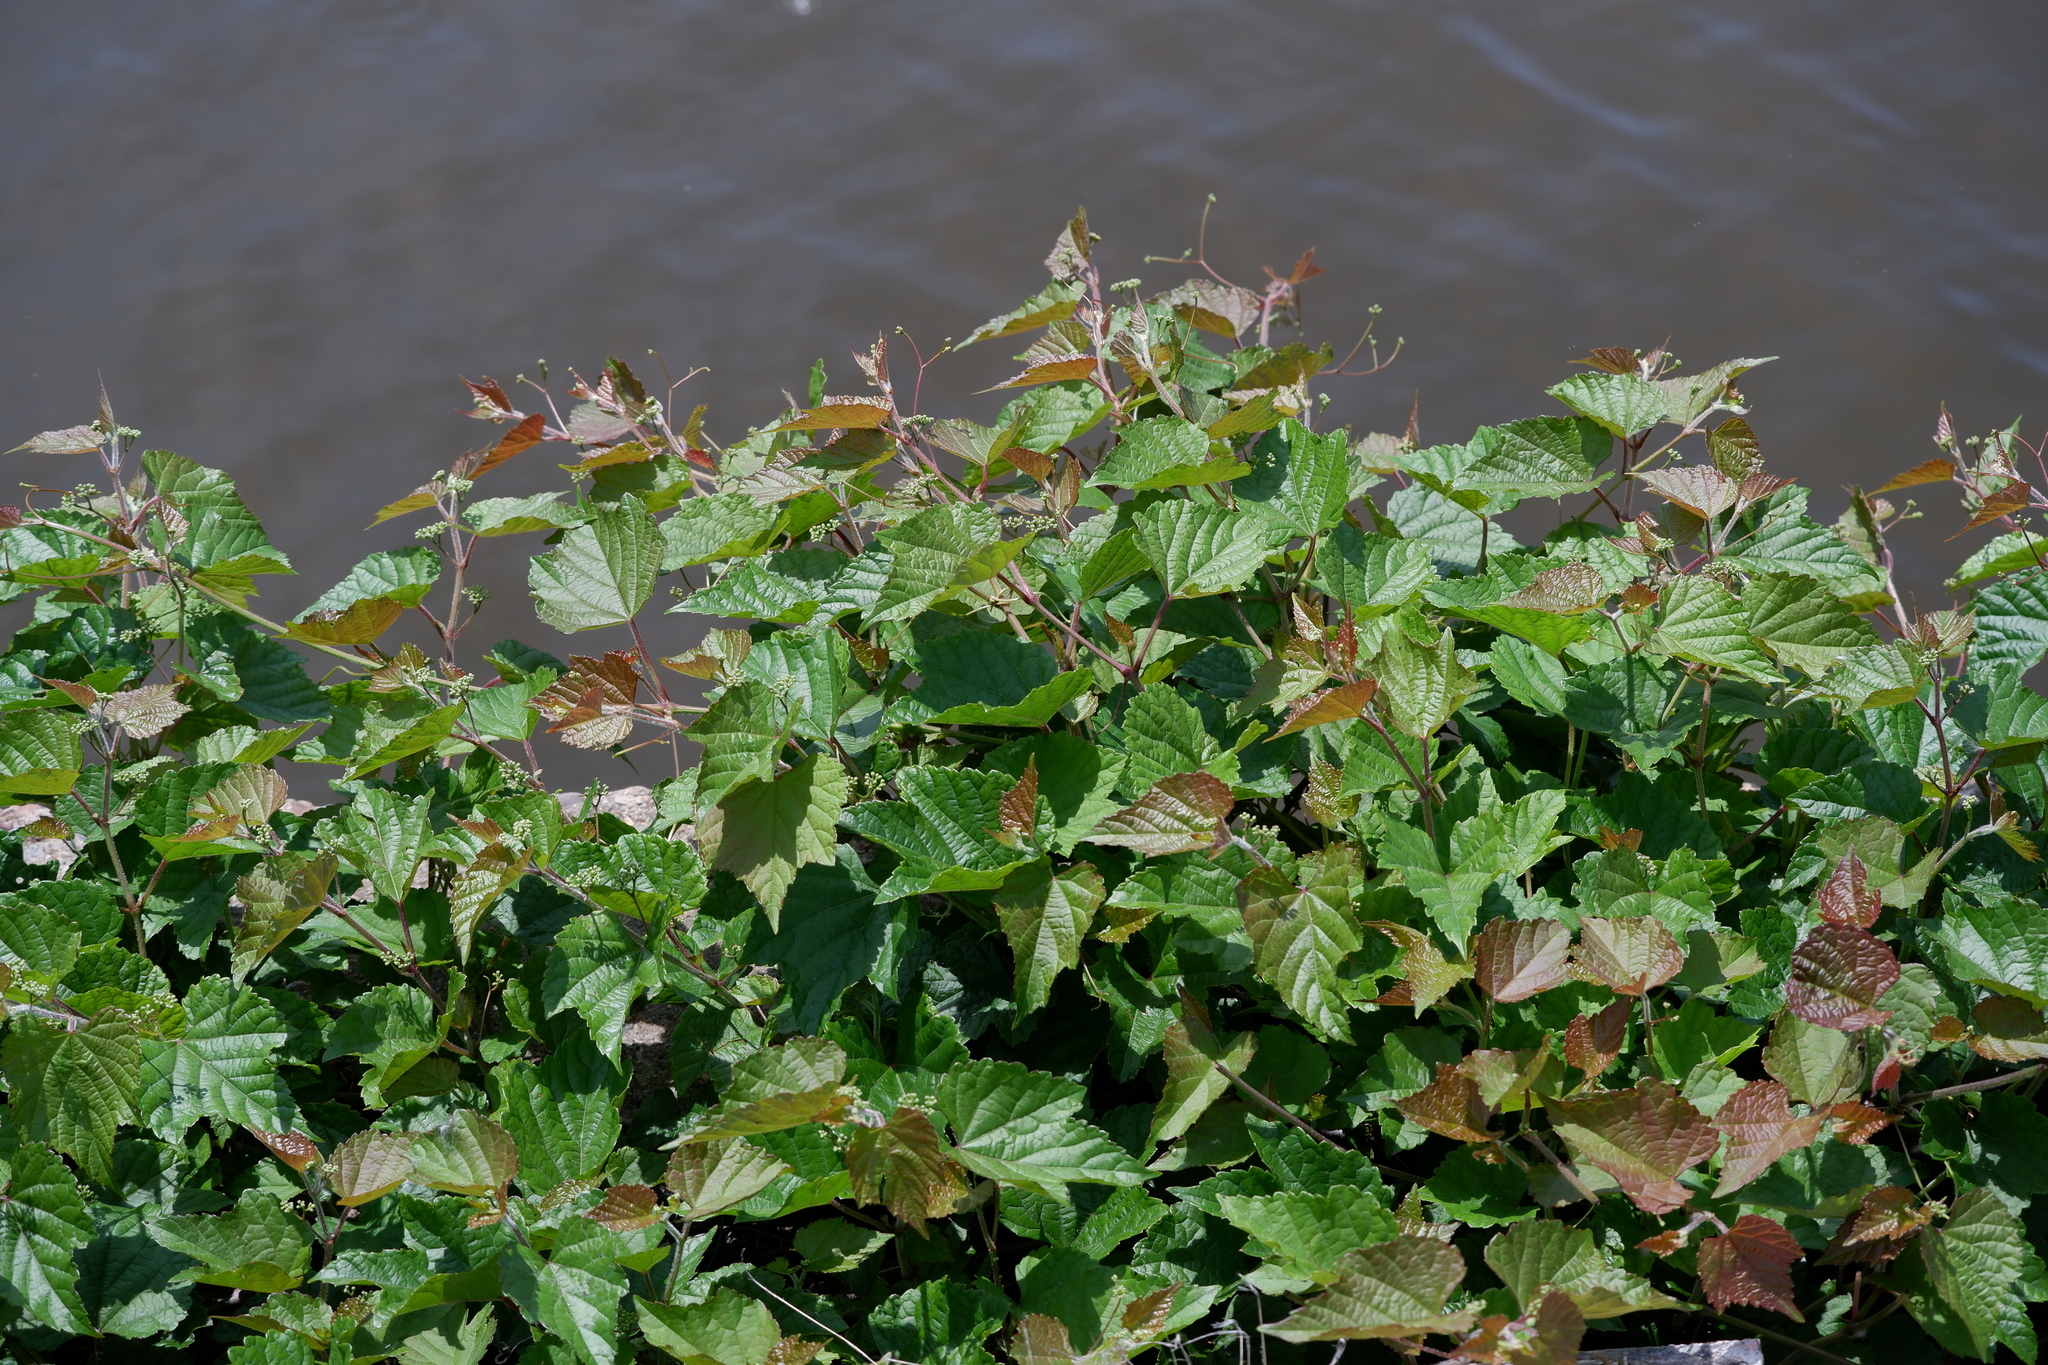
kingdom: Plantae
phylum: Tracheophyta
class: Magnoliopsida
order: Vitales
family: Vitaceae
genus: Ampelopsis
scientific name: Ampelopsis glandulosa
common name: Amur peppervine
